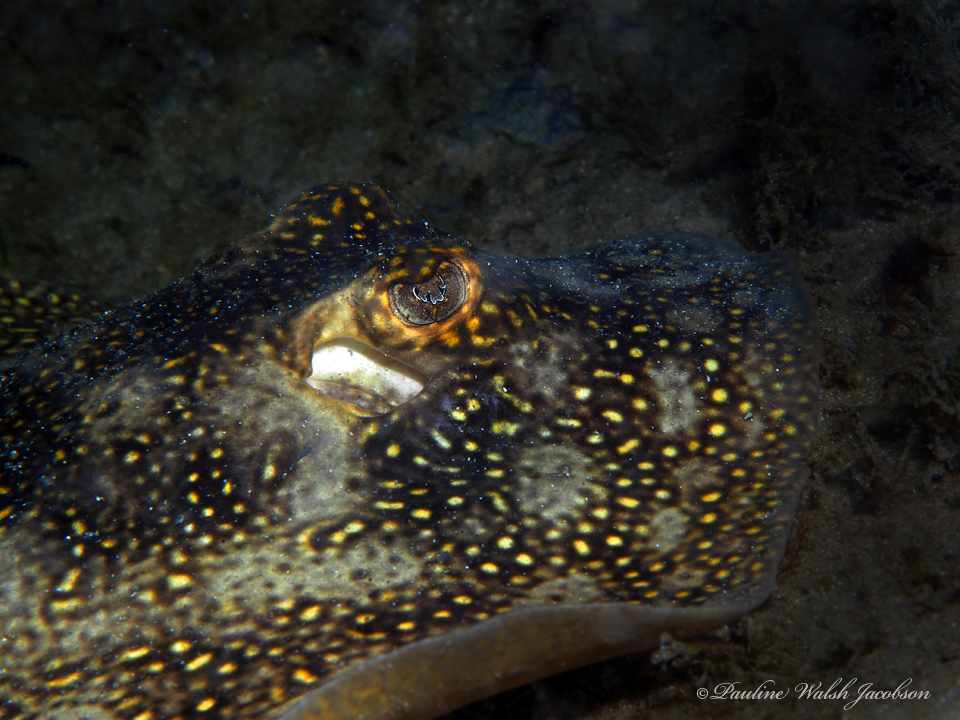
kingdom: Animalia
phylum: Chordata
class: Elasmobranchii
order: Myliobatiformes
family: Urotrygonidae
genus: Urobatis
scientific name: Urobatis jamaicensis
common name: Yellow stingray
